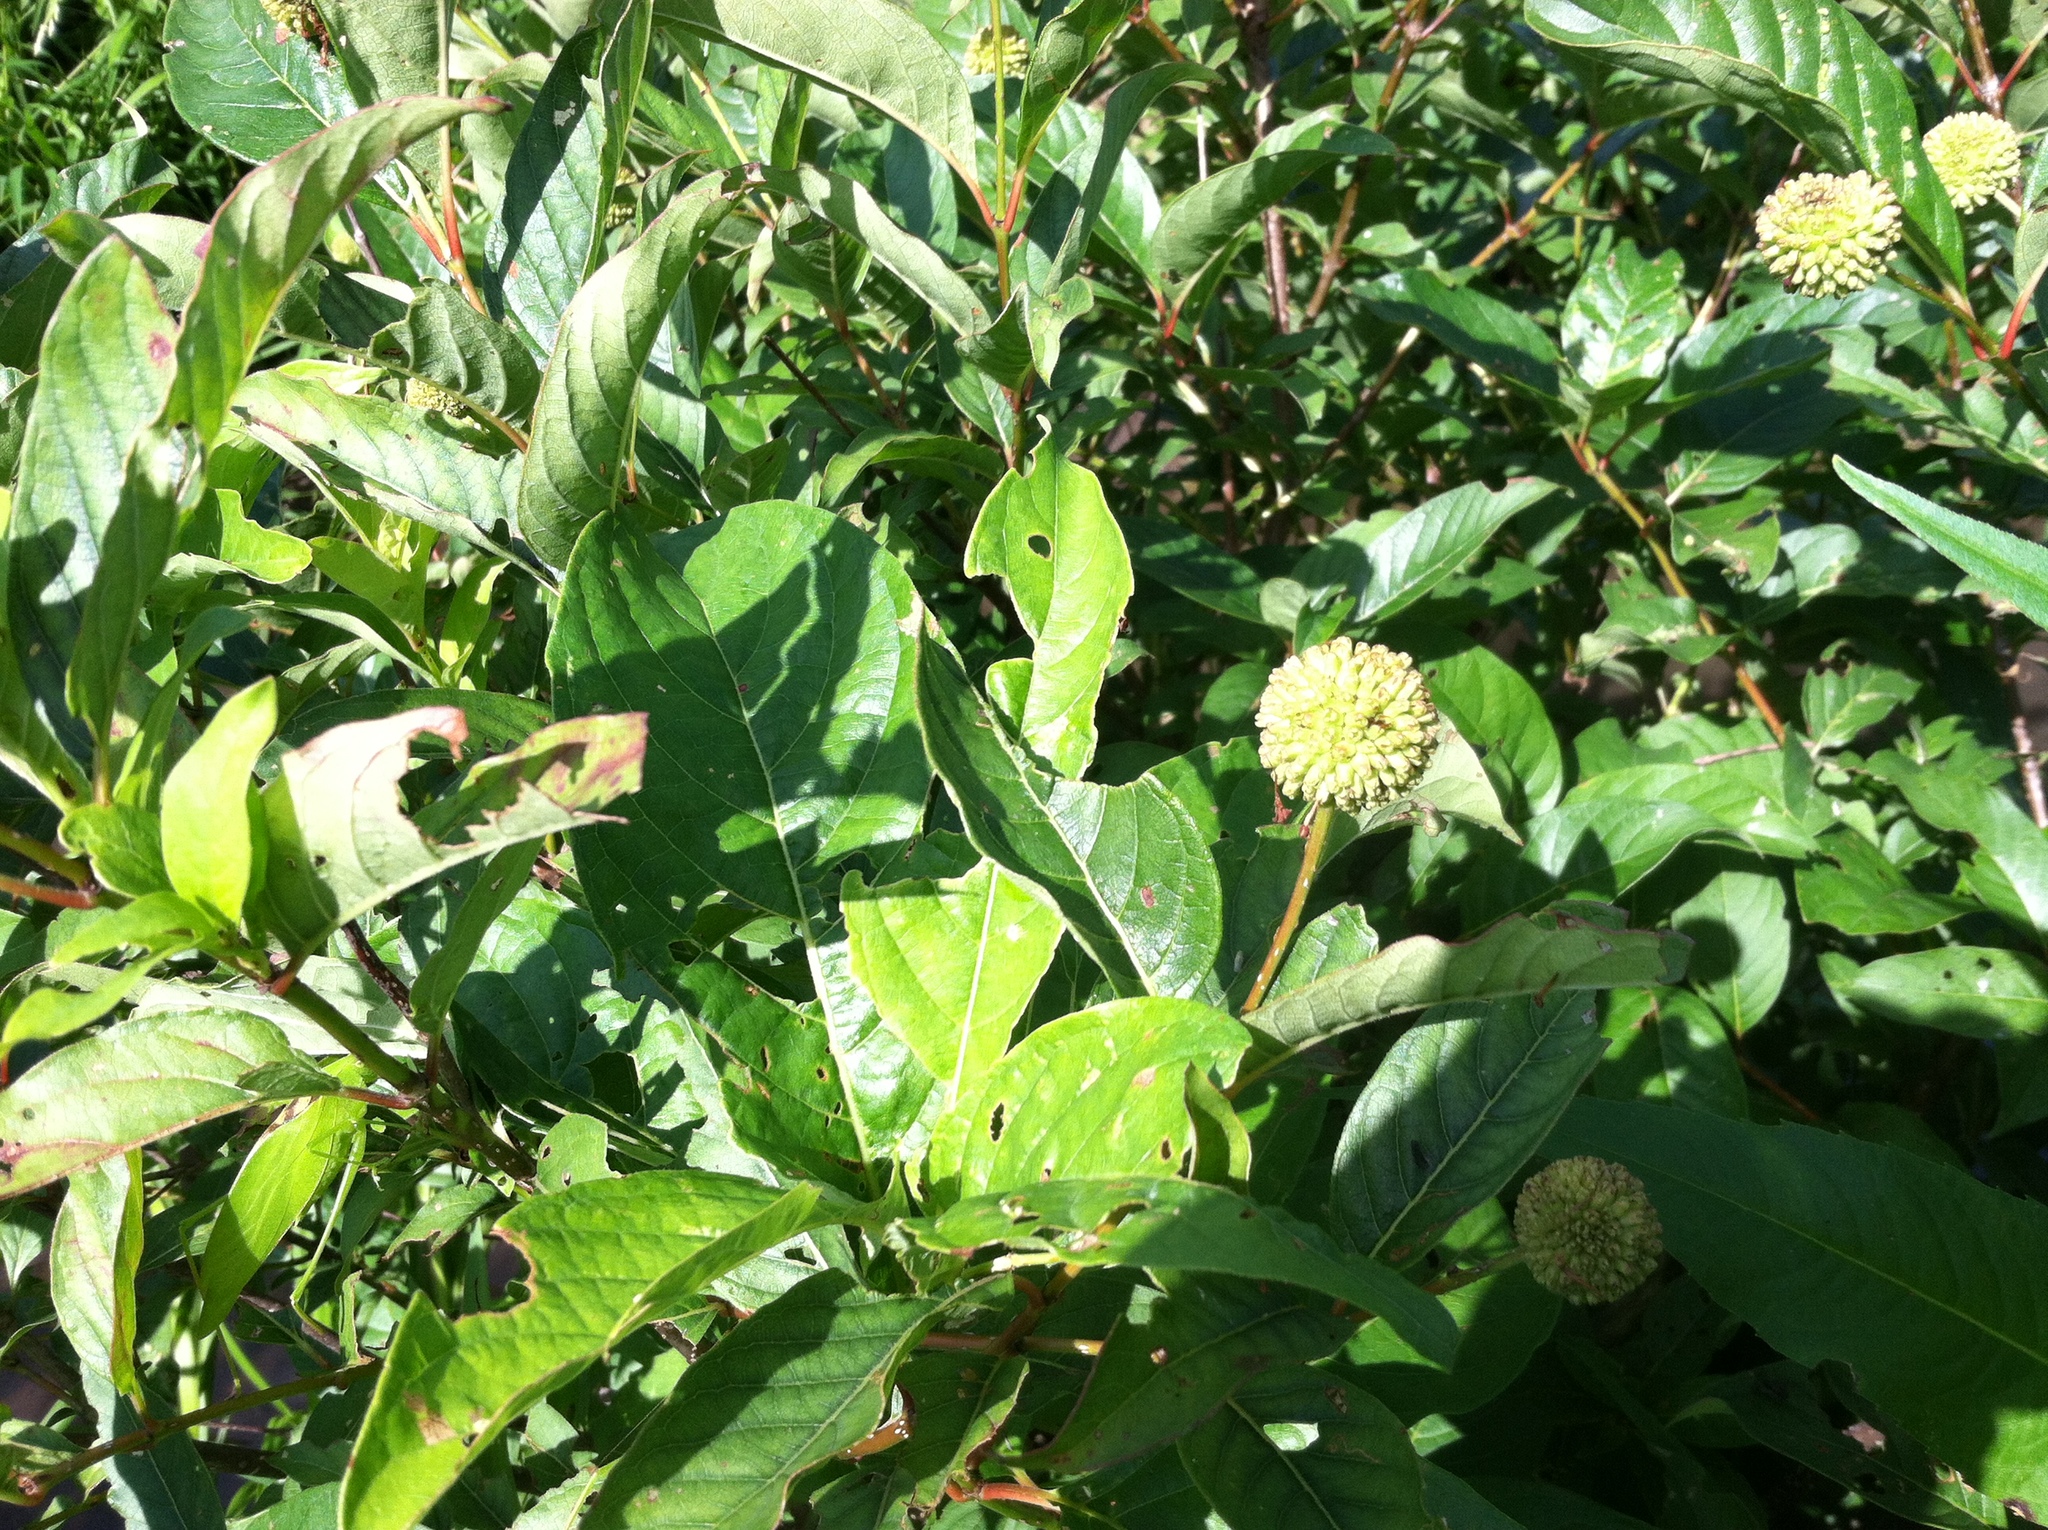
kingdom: Plantae
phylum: Tracheophyta
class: Magnoliopsida
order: Gentianales
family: Rubiaceae
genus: Cephalanthus
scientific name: Cephalanthus occidentalis
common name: Button-willow
